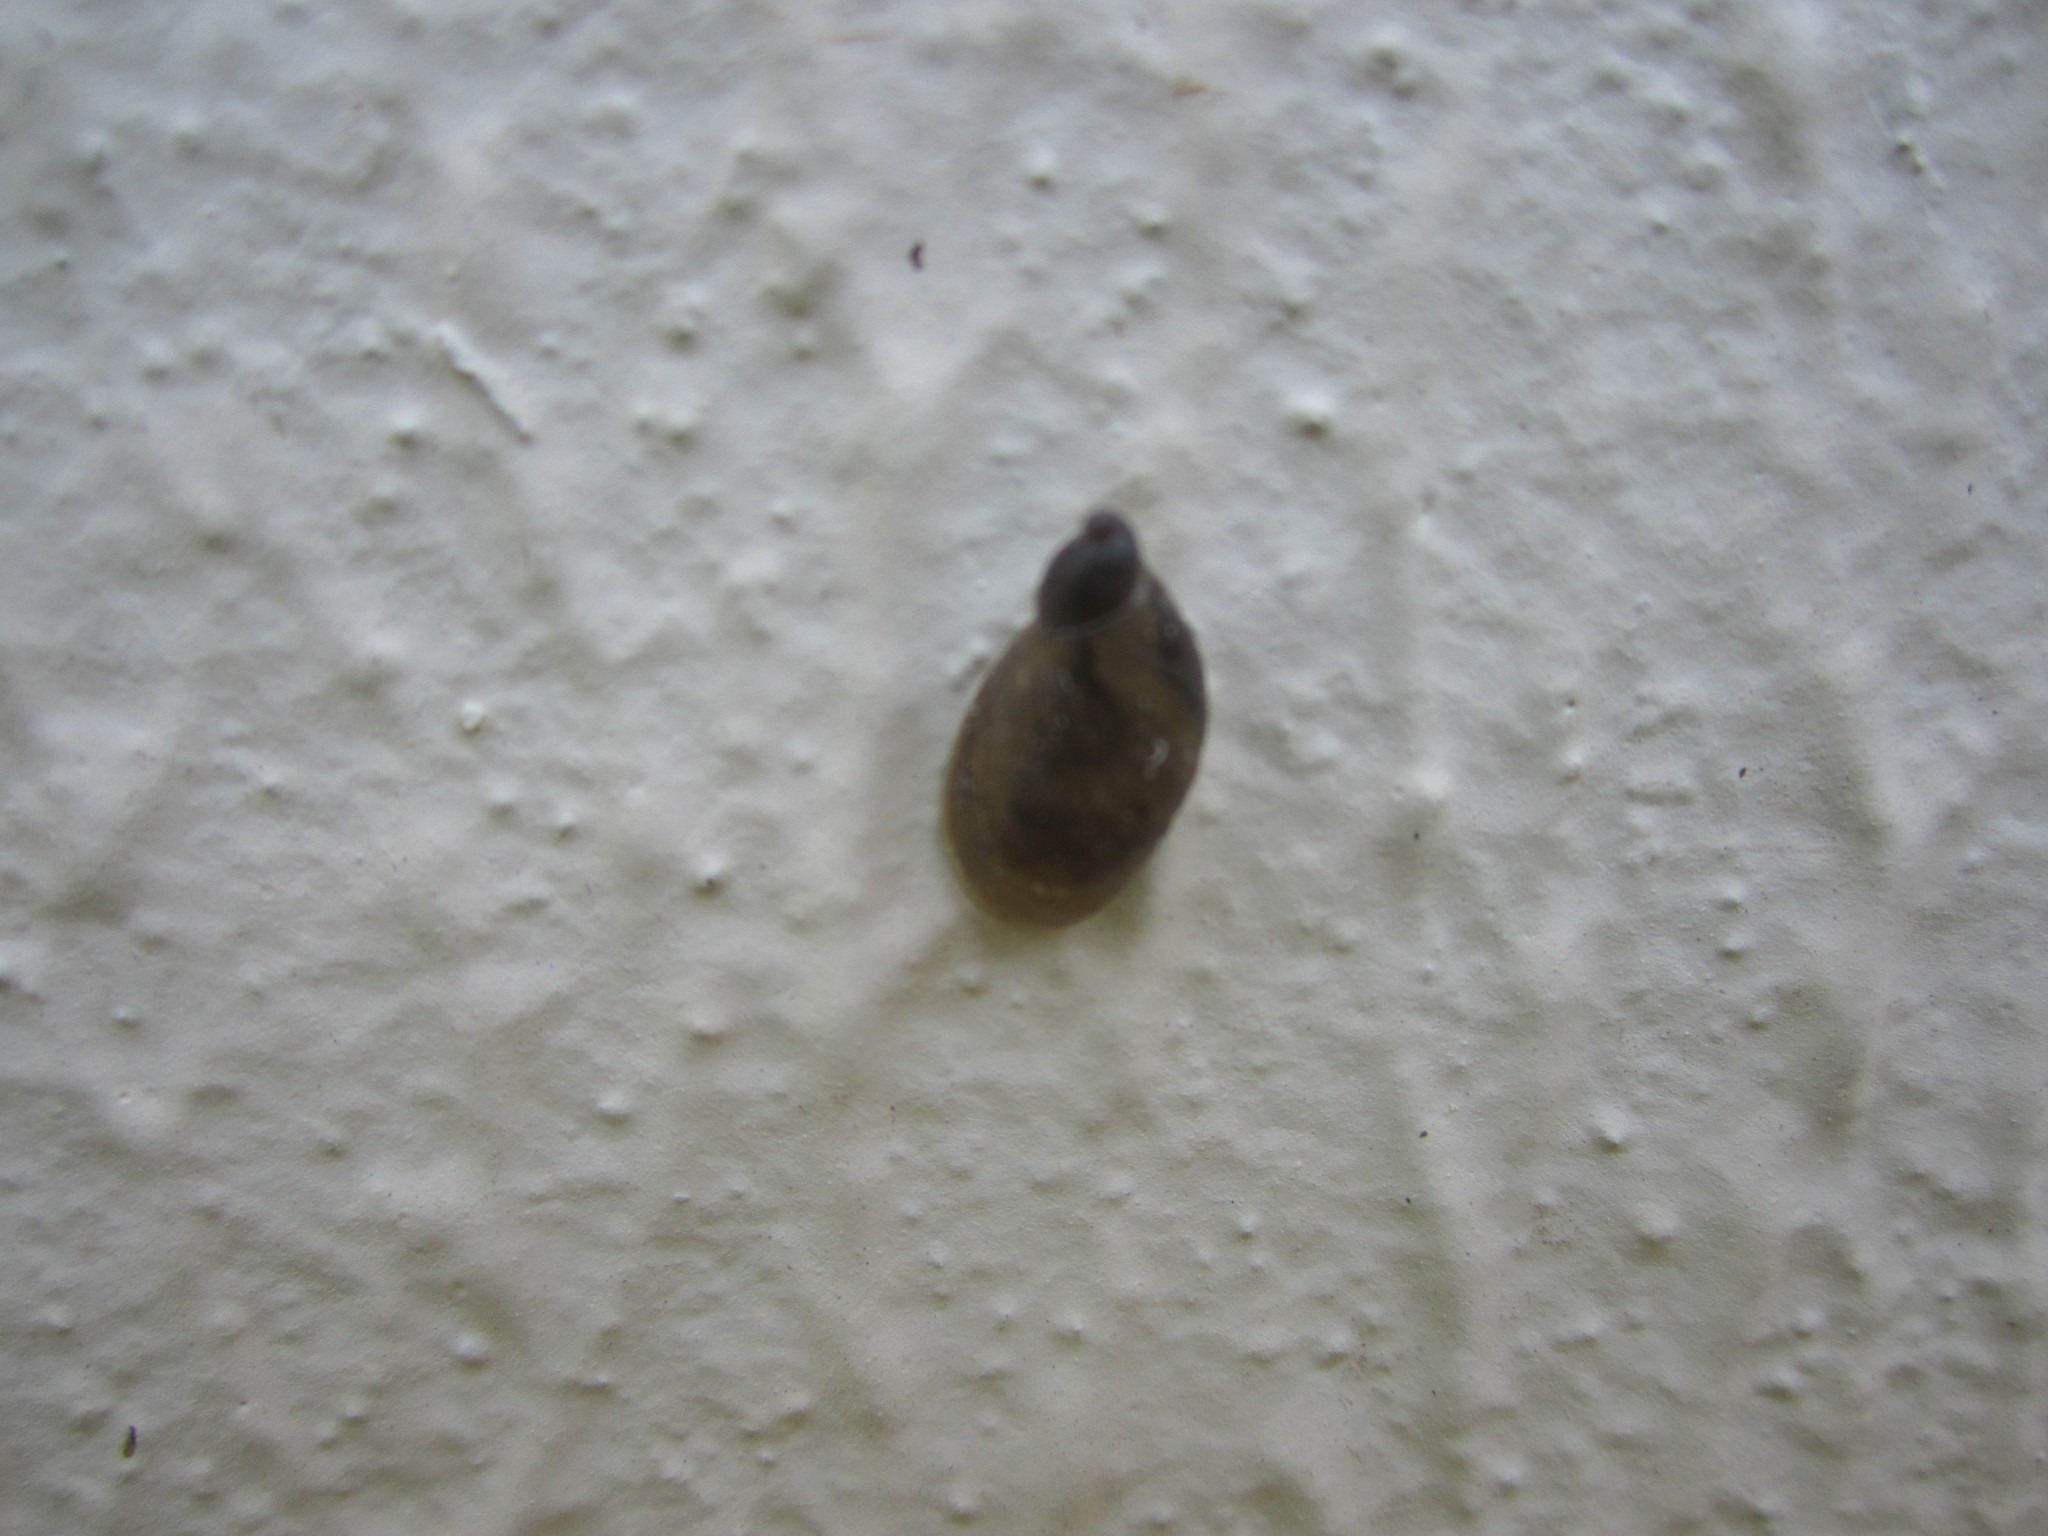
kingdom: Animalia
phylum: Mollusca
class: Gastropoda
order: Stylommatophora
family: Succineidae
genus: Oxyloma
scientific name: Oxyloma elegans
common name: Pfeiffer's amber snail
